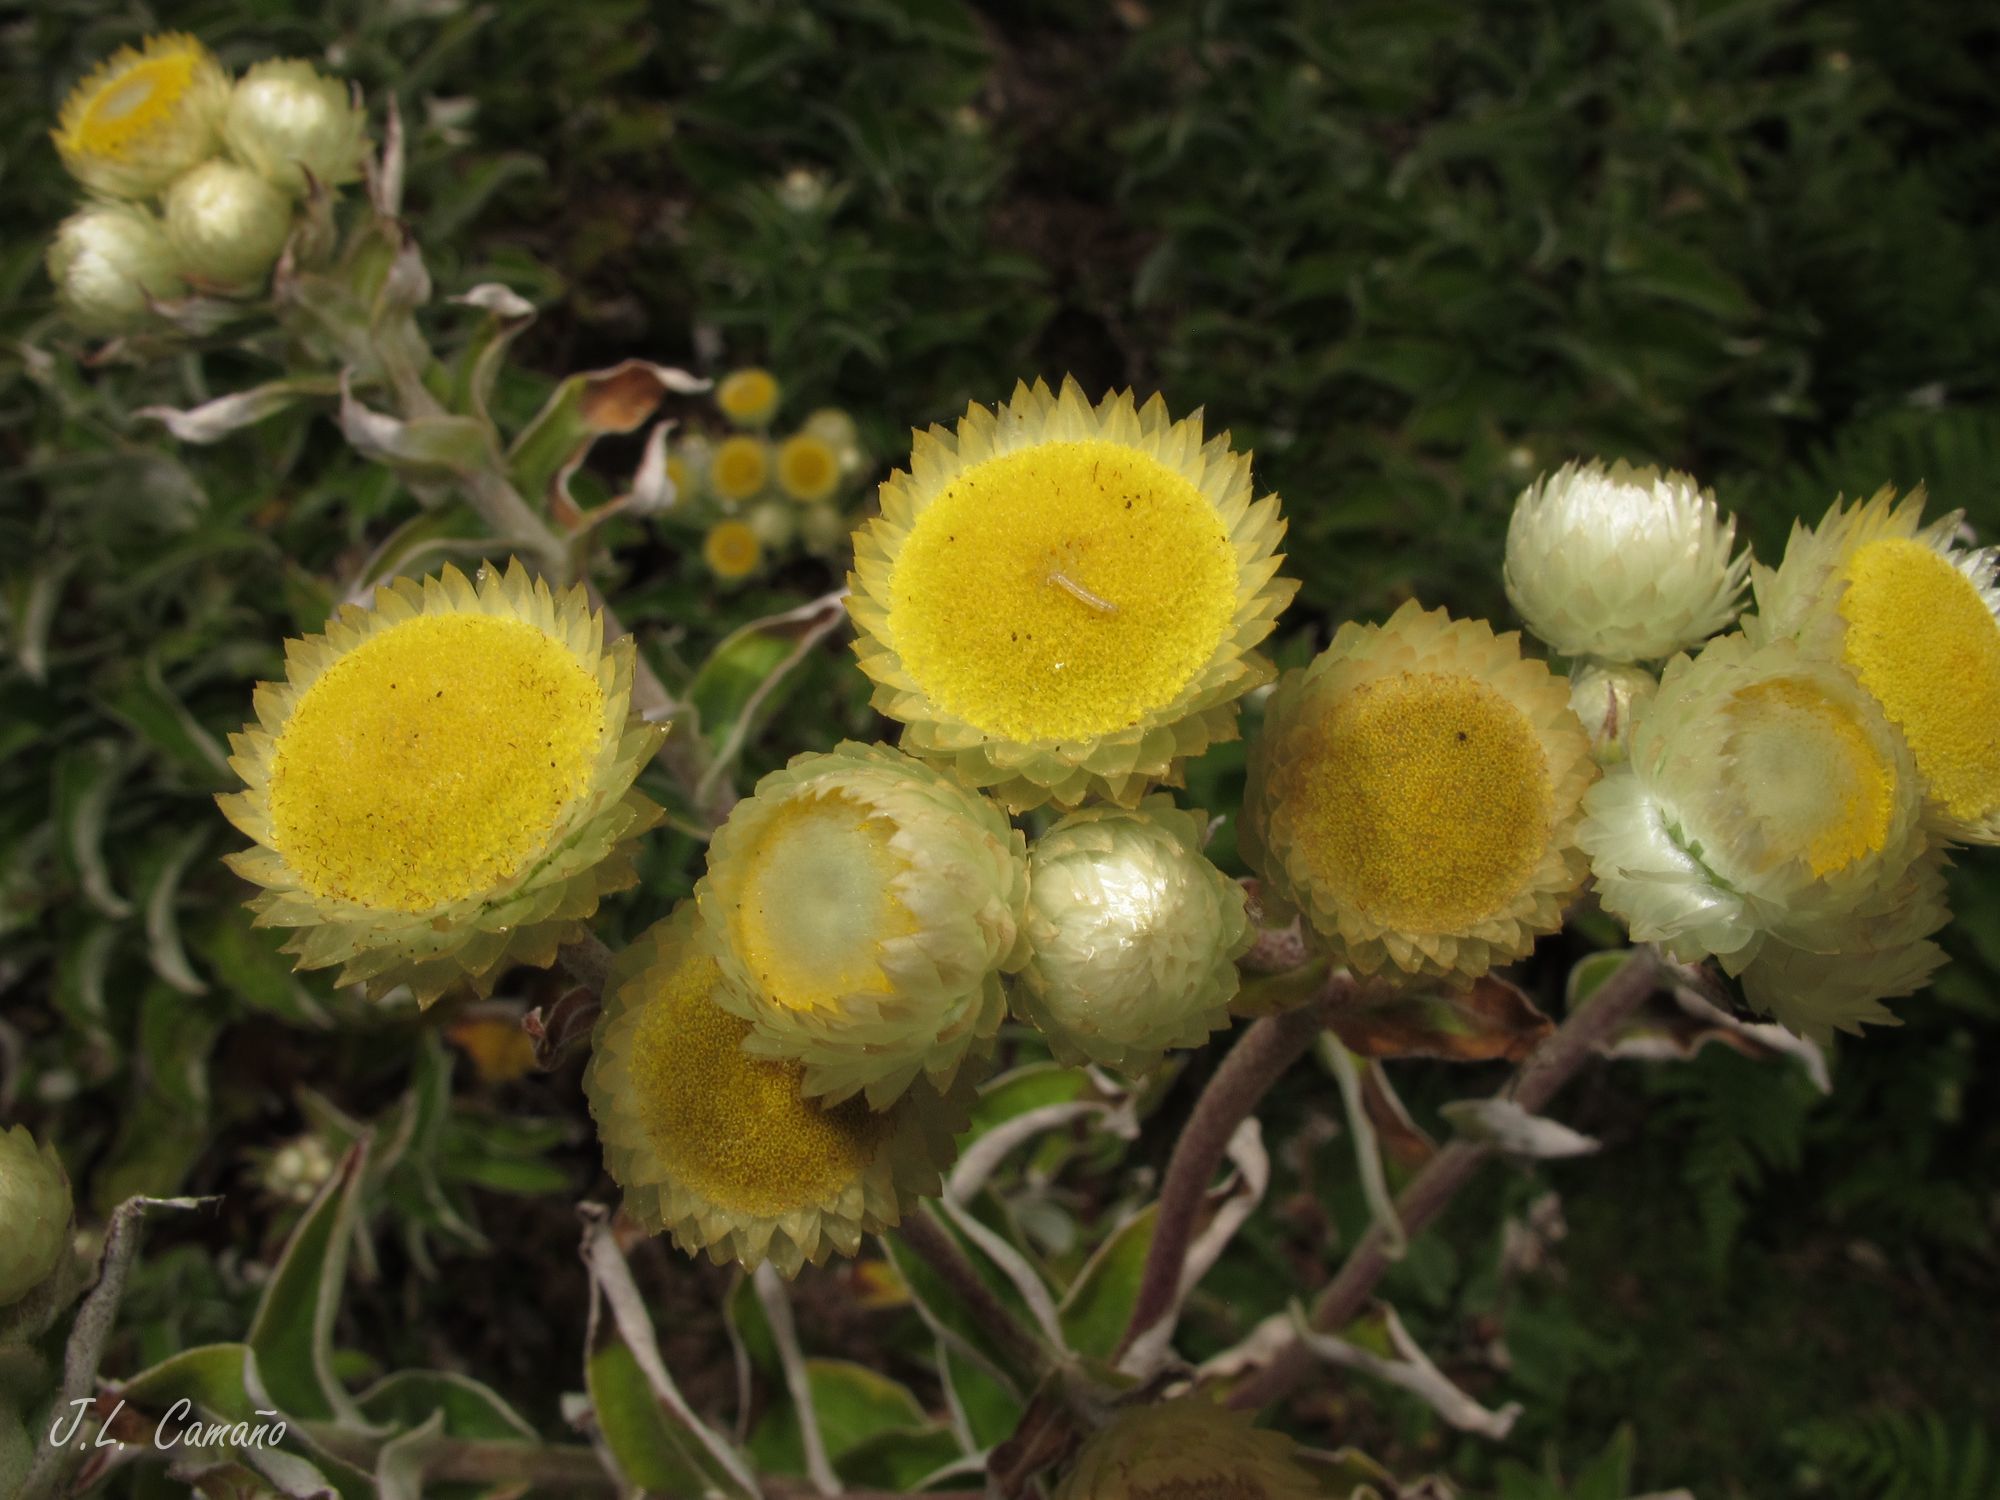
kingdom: Plantae
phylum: Tracheophyta
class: Magnoliopsida
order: Asterales
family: Asteraceae
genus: Helichrysum
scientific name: Helichrysum foetidum
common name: Stinking everlasting
